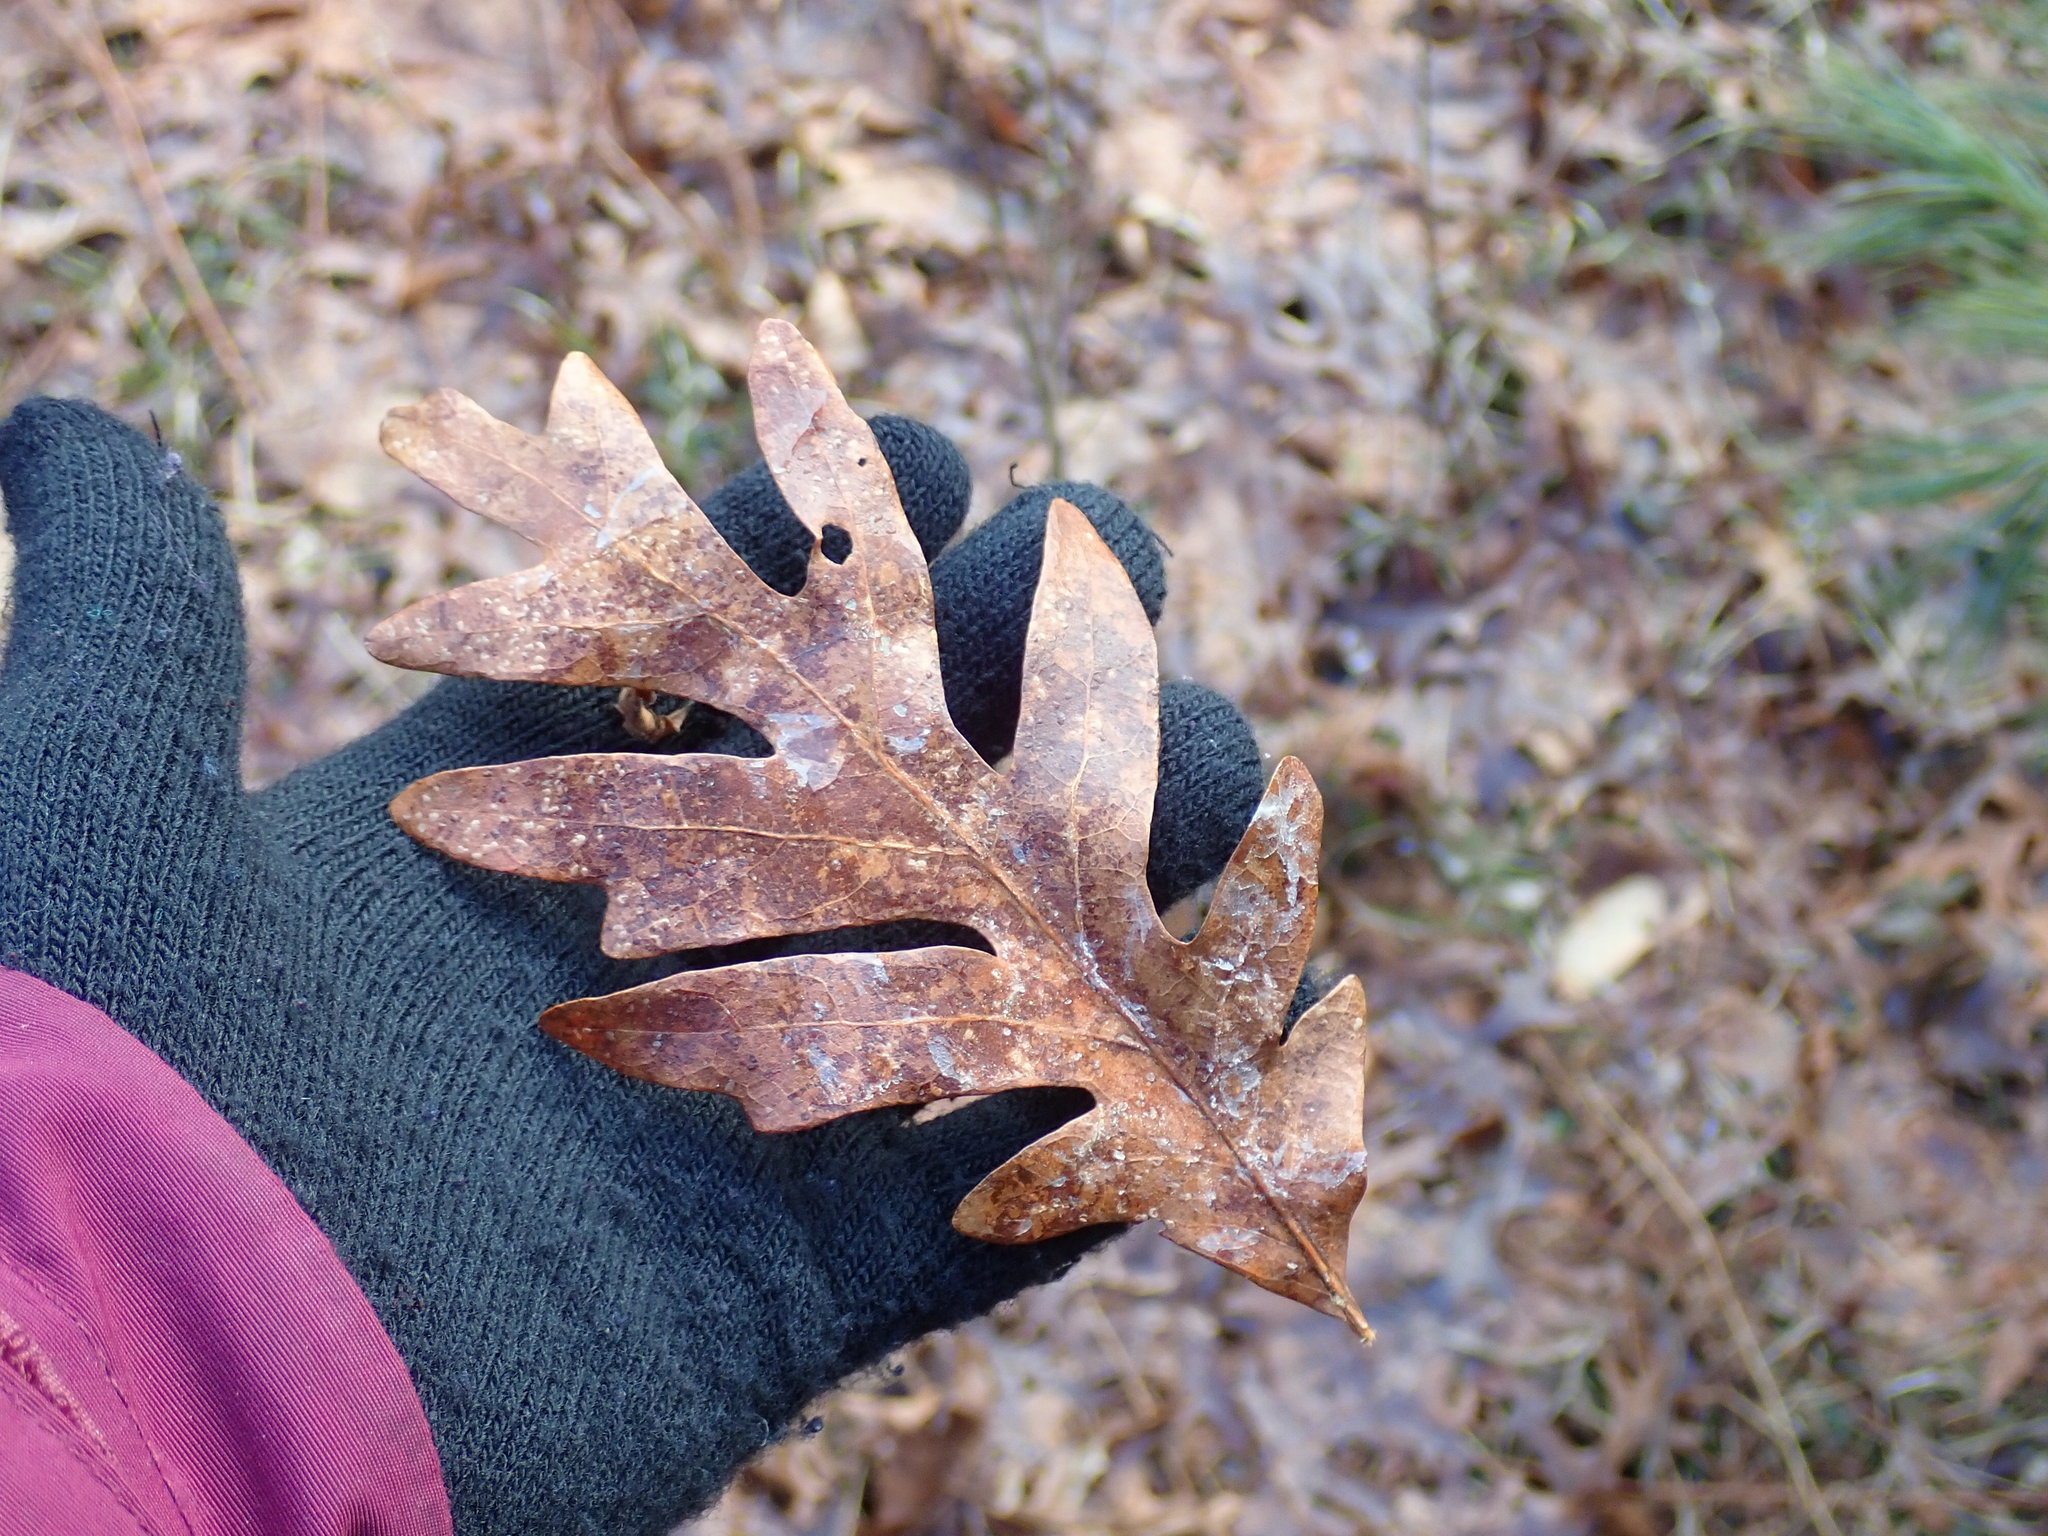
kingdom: Plantae
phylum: Tracheophyta
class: Magnoliopsida
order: Fagales
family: Fagaceae
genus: Quercus
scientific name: Quercus alba
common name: White oak
